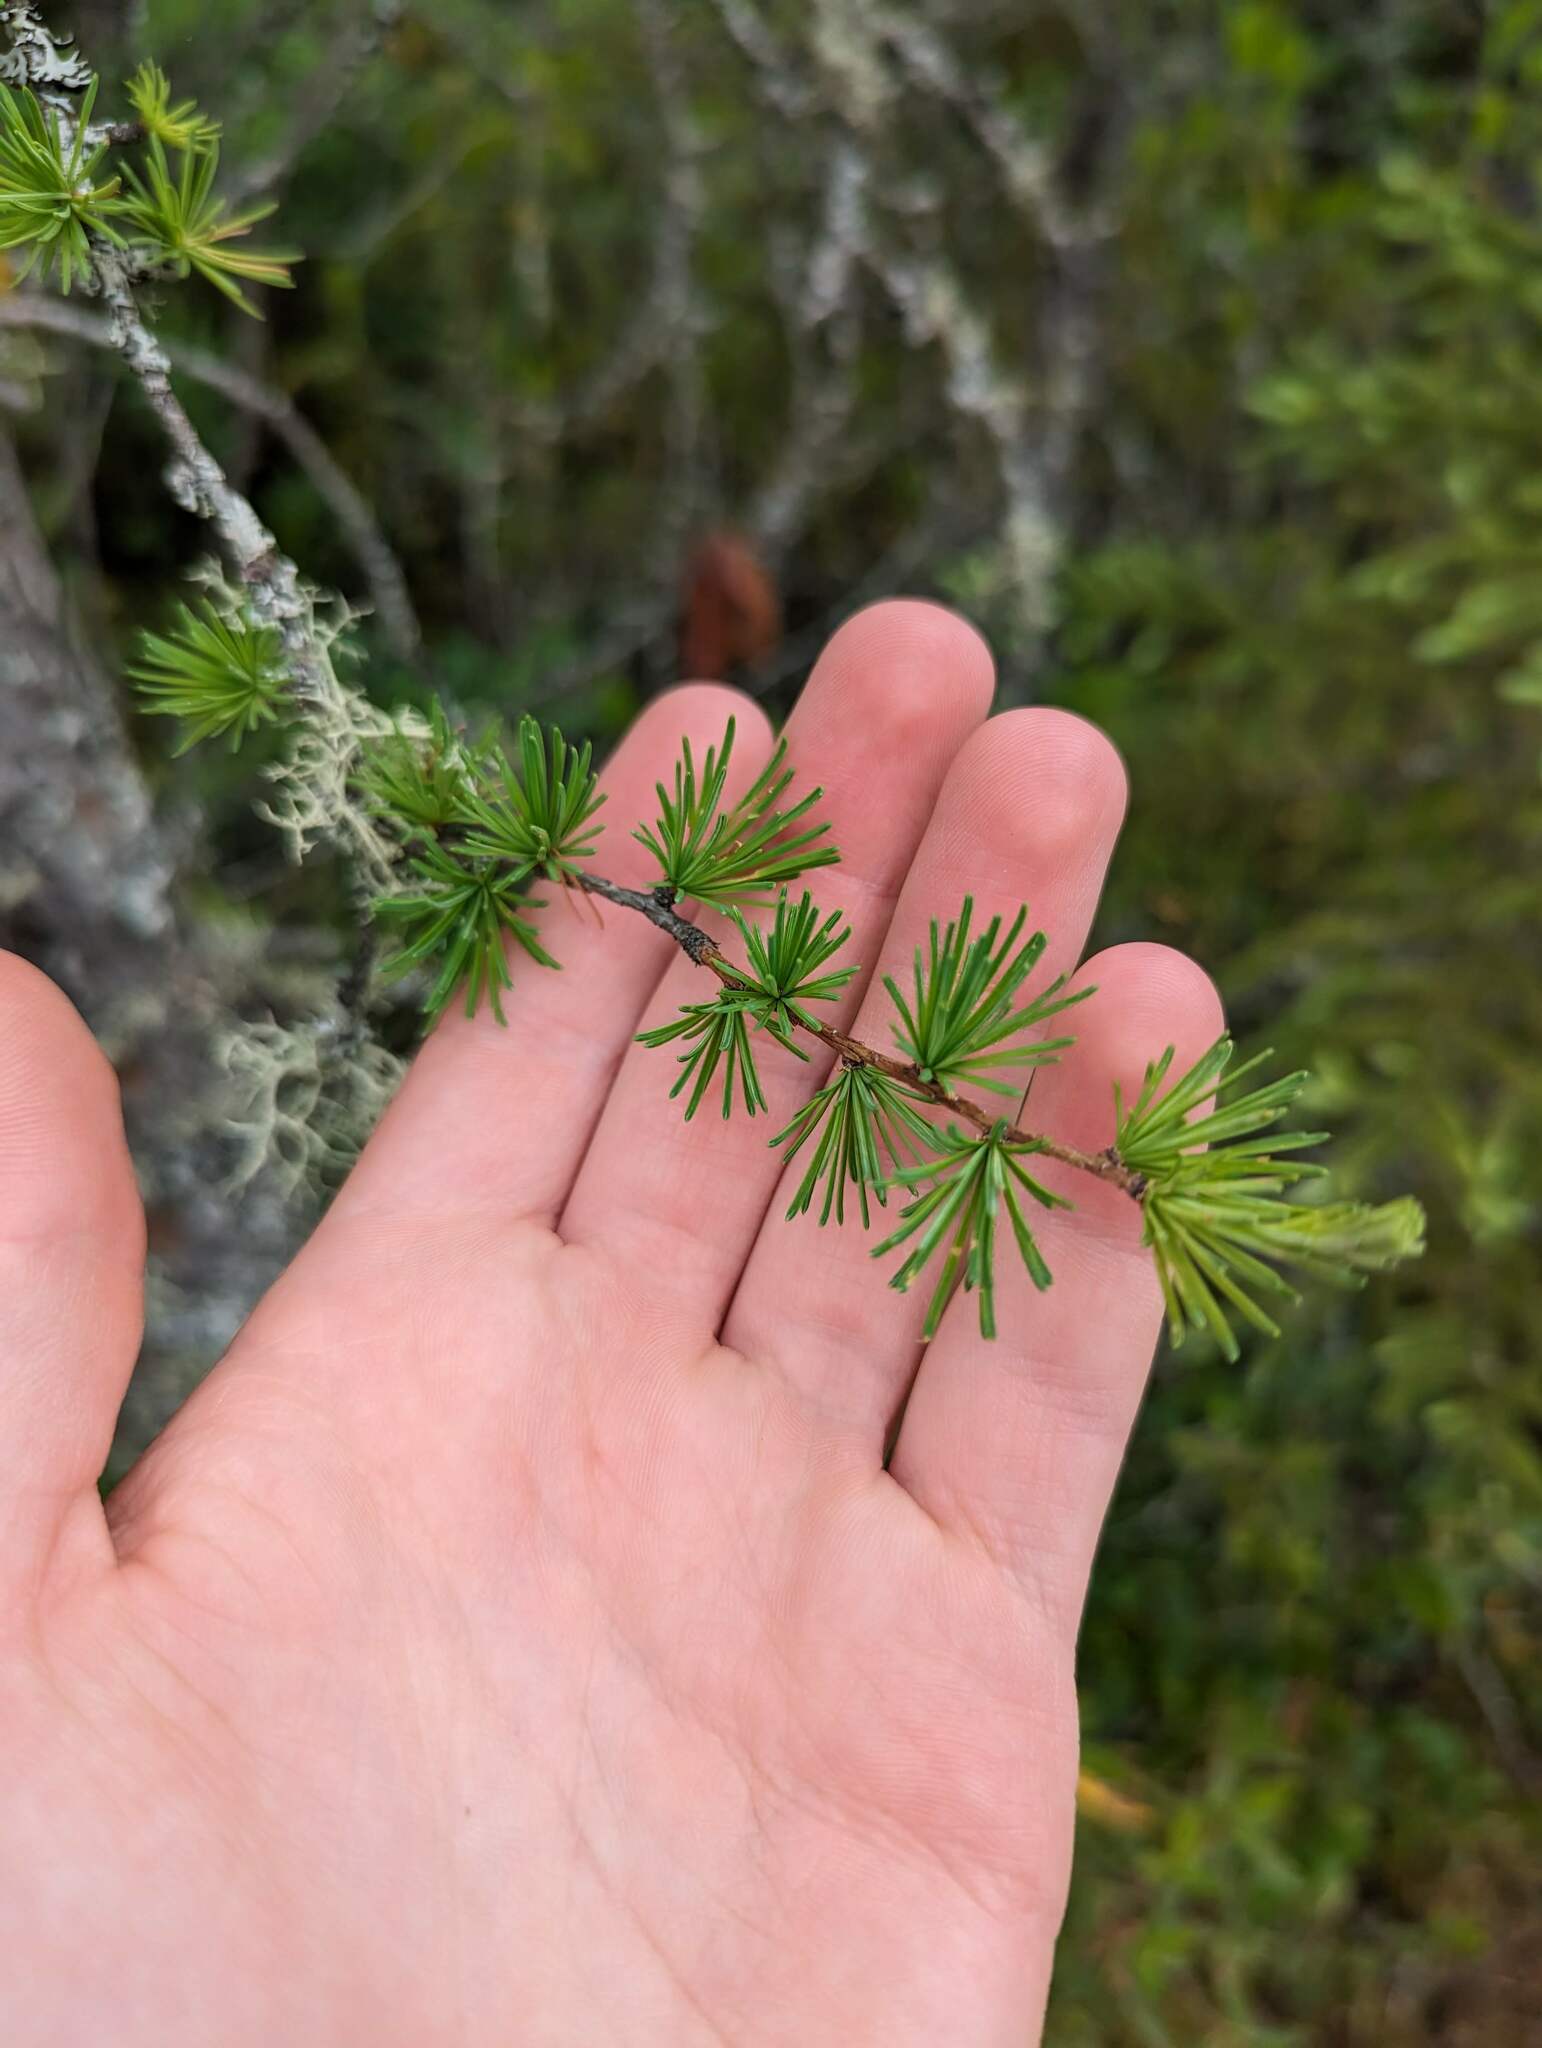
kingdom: Plantae
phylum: Tracheophyta
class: Pinopsida
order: Pinales
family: Pinaceae
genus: Larix
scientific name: Larix laricina
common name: American larch
